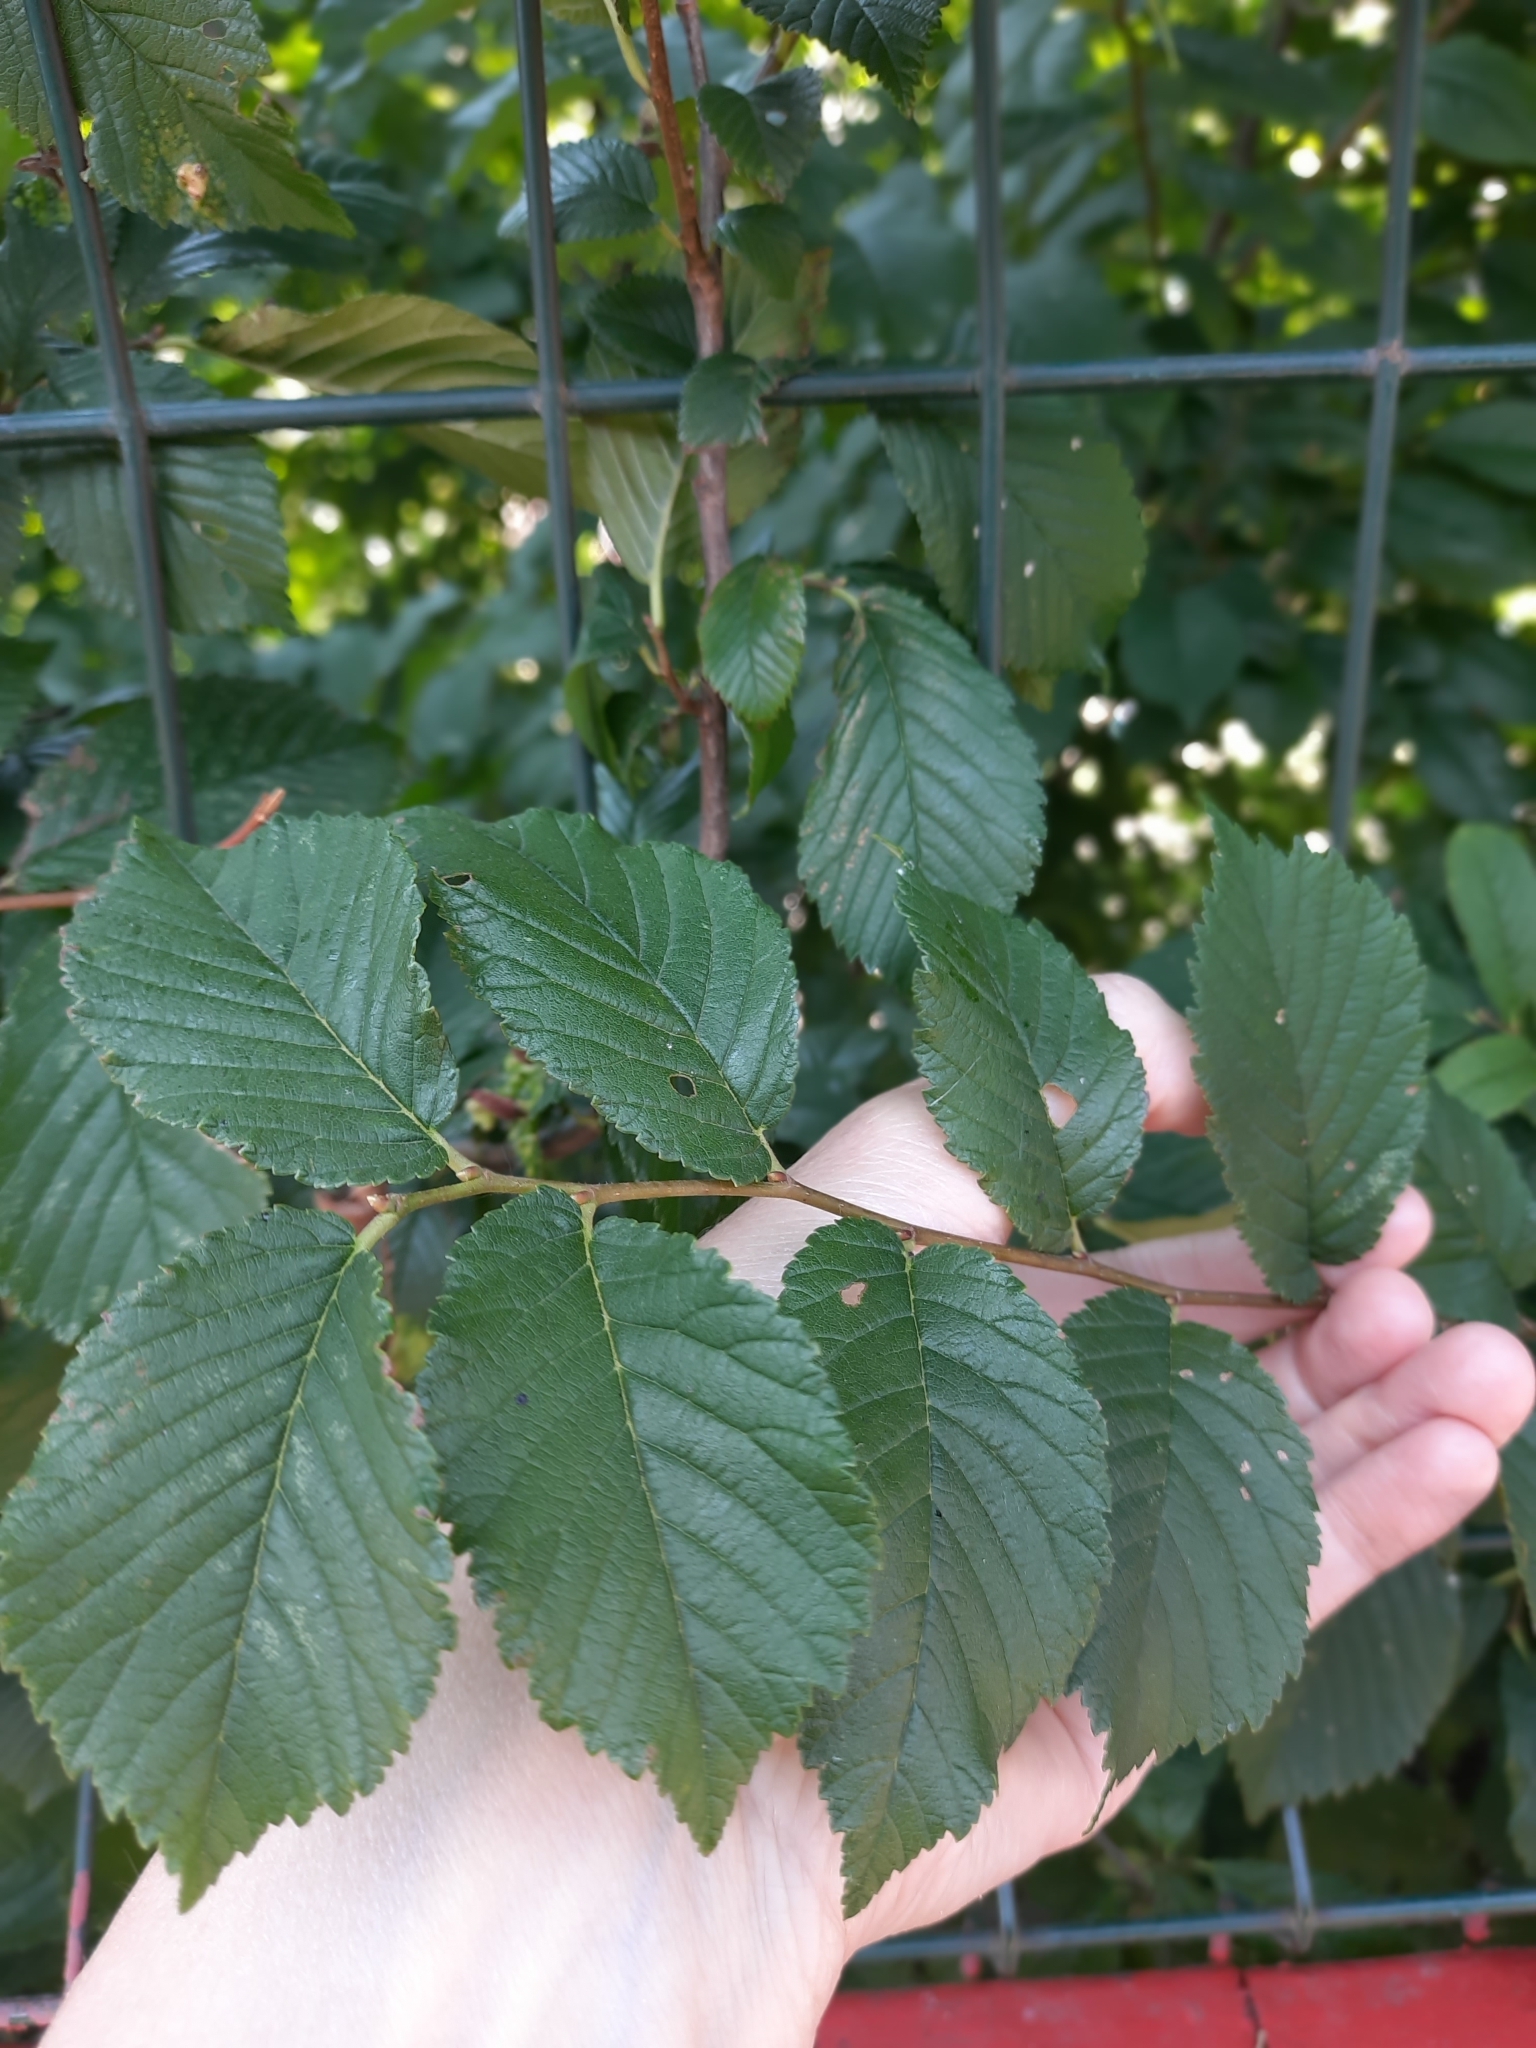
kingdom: Plantae
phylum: Tracheophyta
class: Magnoliopsida
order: Rosales
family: Ulmaceae
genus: Ulmus
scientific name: Ulmus minor
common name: Small-leaved elm
